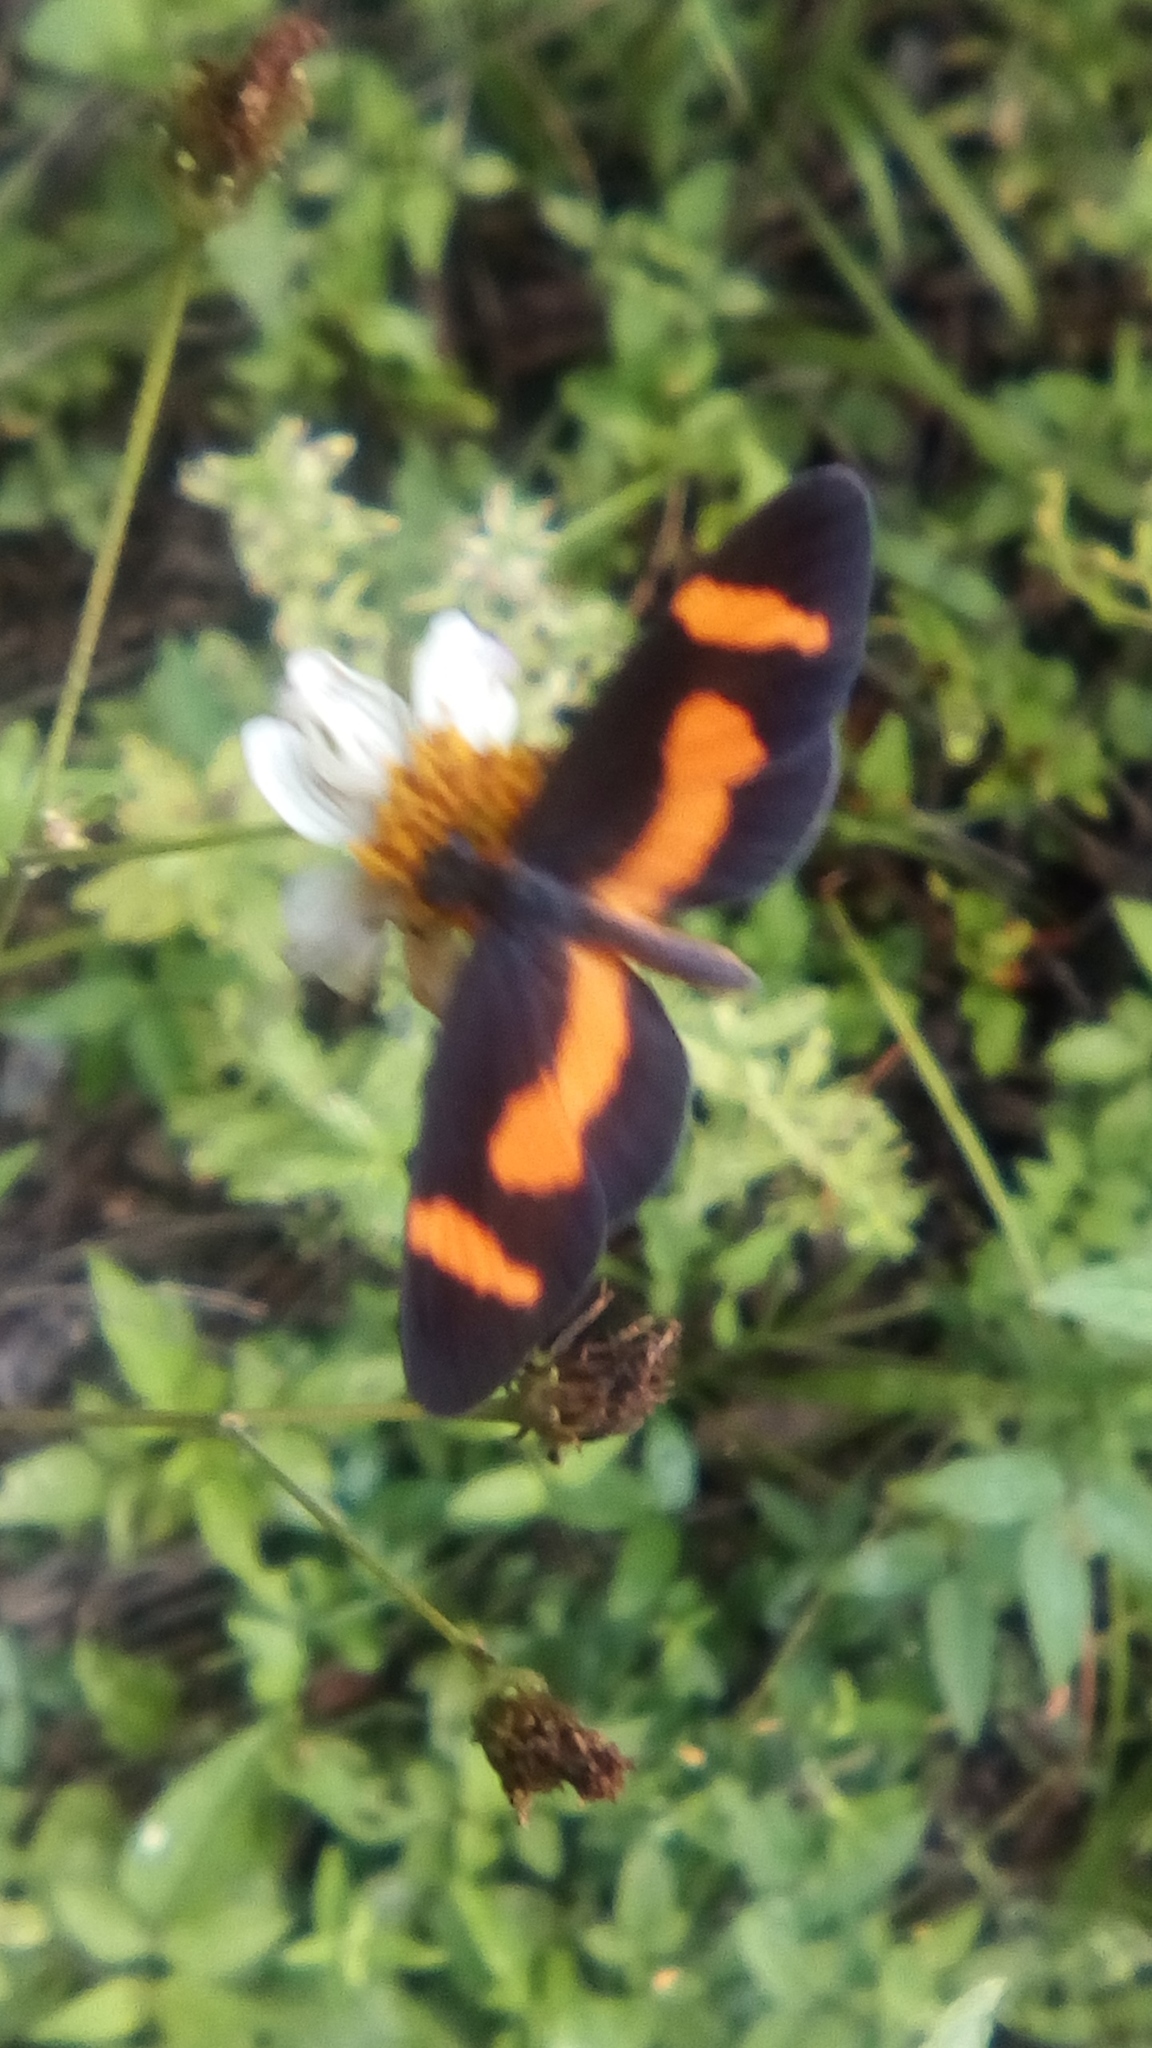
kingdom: Animalia
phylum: Arthropoda
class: Insecta
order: Lepidoptera
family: Nymphalidae
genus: Microtia
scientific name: Microtia elva
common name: Elf
